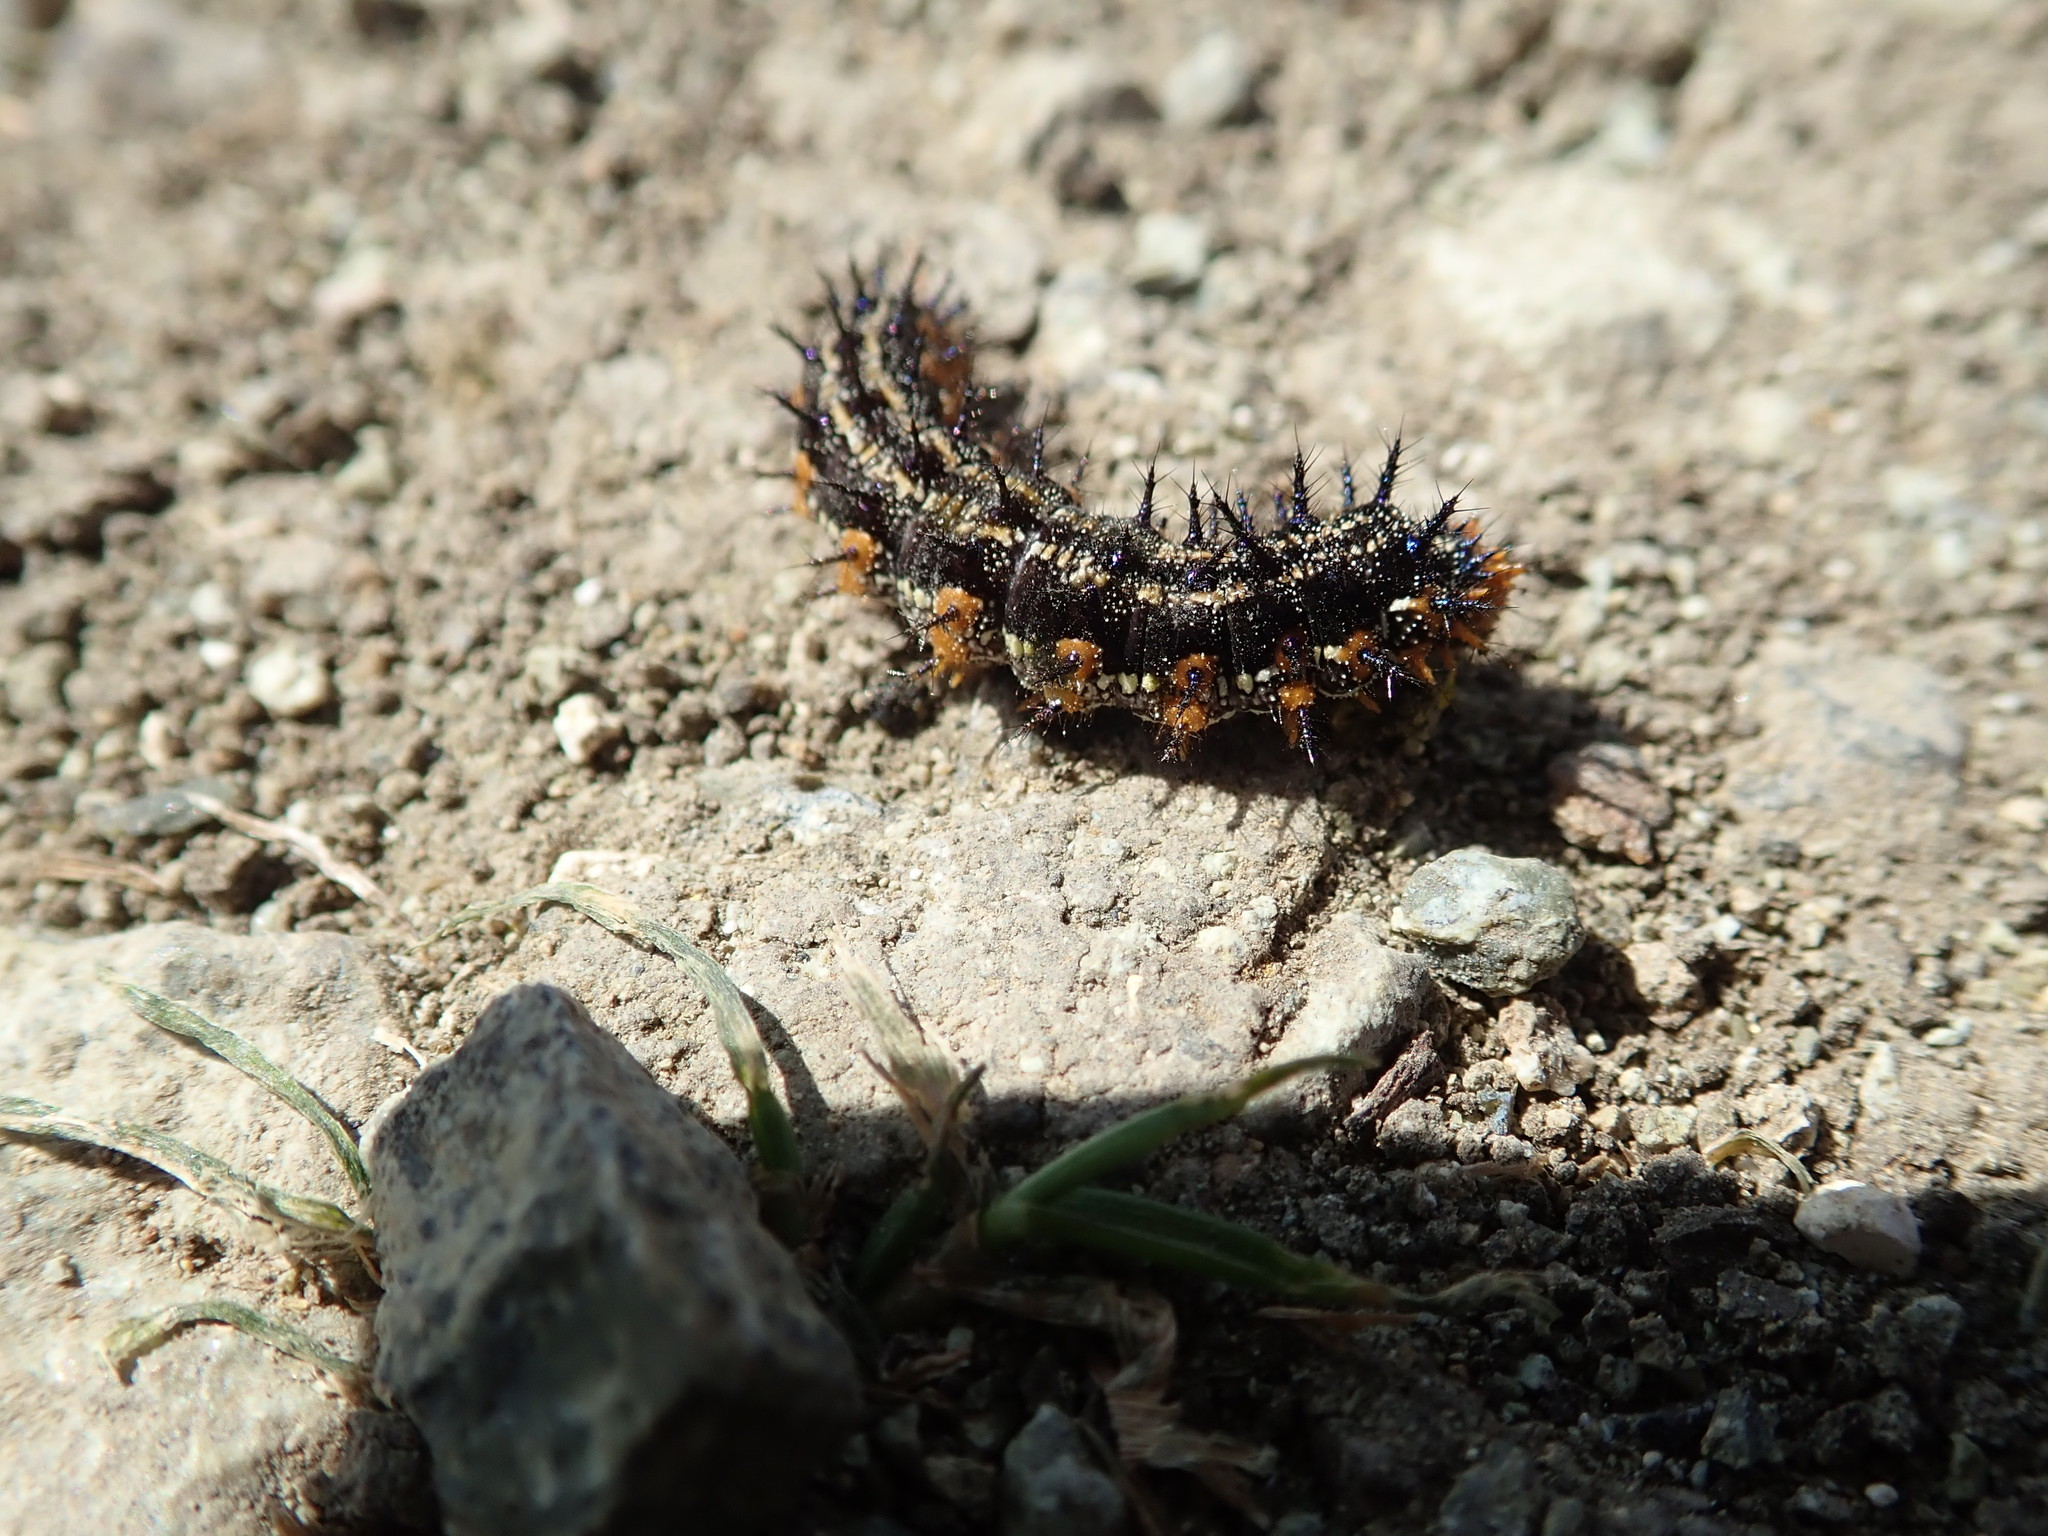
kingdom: Animalia
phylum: Arthropoda
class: Insecta
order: Lepidoptera
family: Nymphalidae
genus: Junonia
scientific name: Junonia grisea
